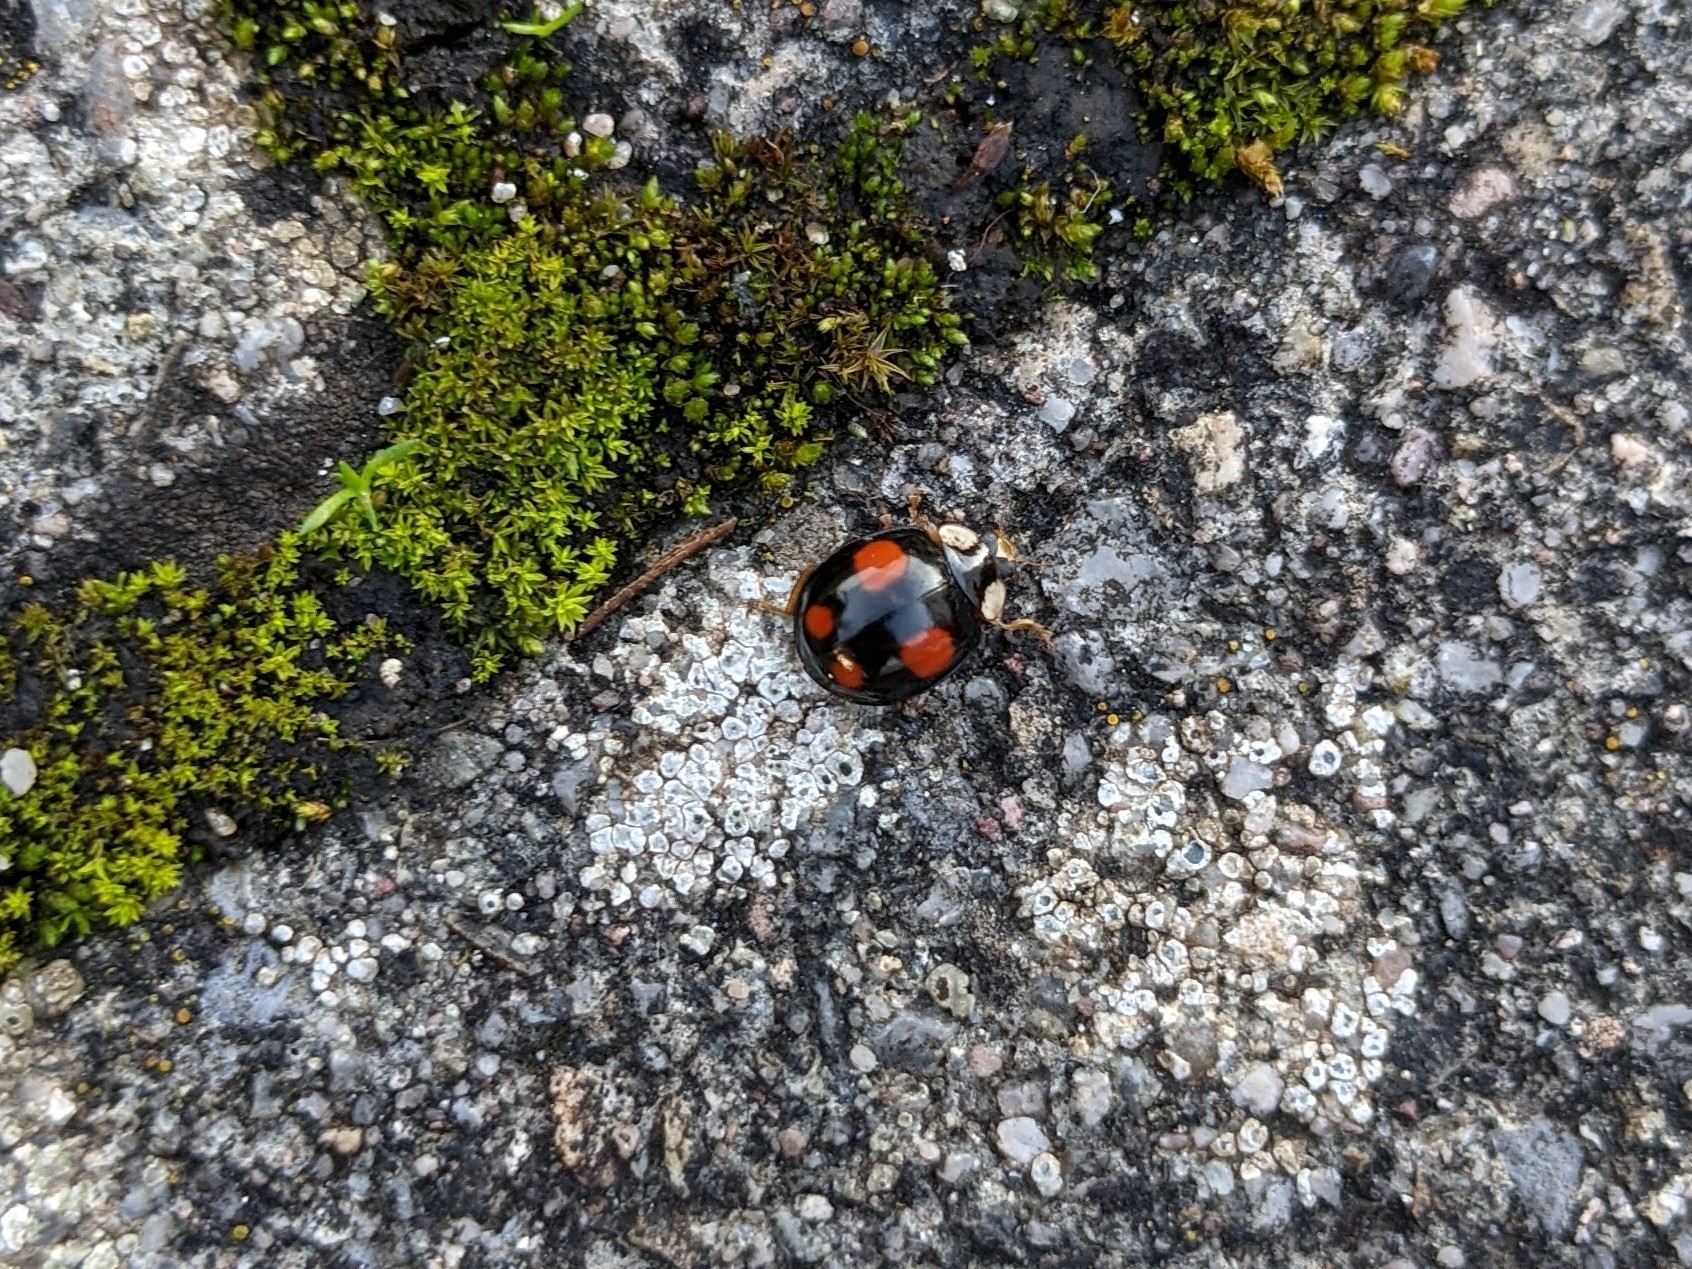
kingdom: Animalia
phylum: Arthropoda
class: Insecta
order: Coleoptera
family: Coccinellidae
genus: Harmonia
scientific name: Harmonia axyridis
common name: Harlequin ladybird
